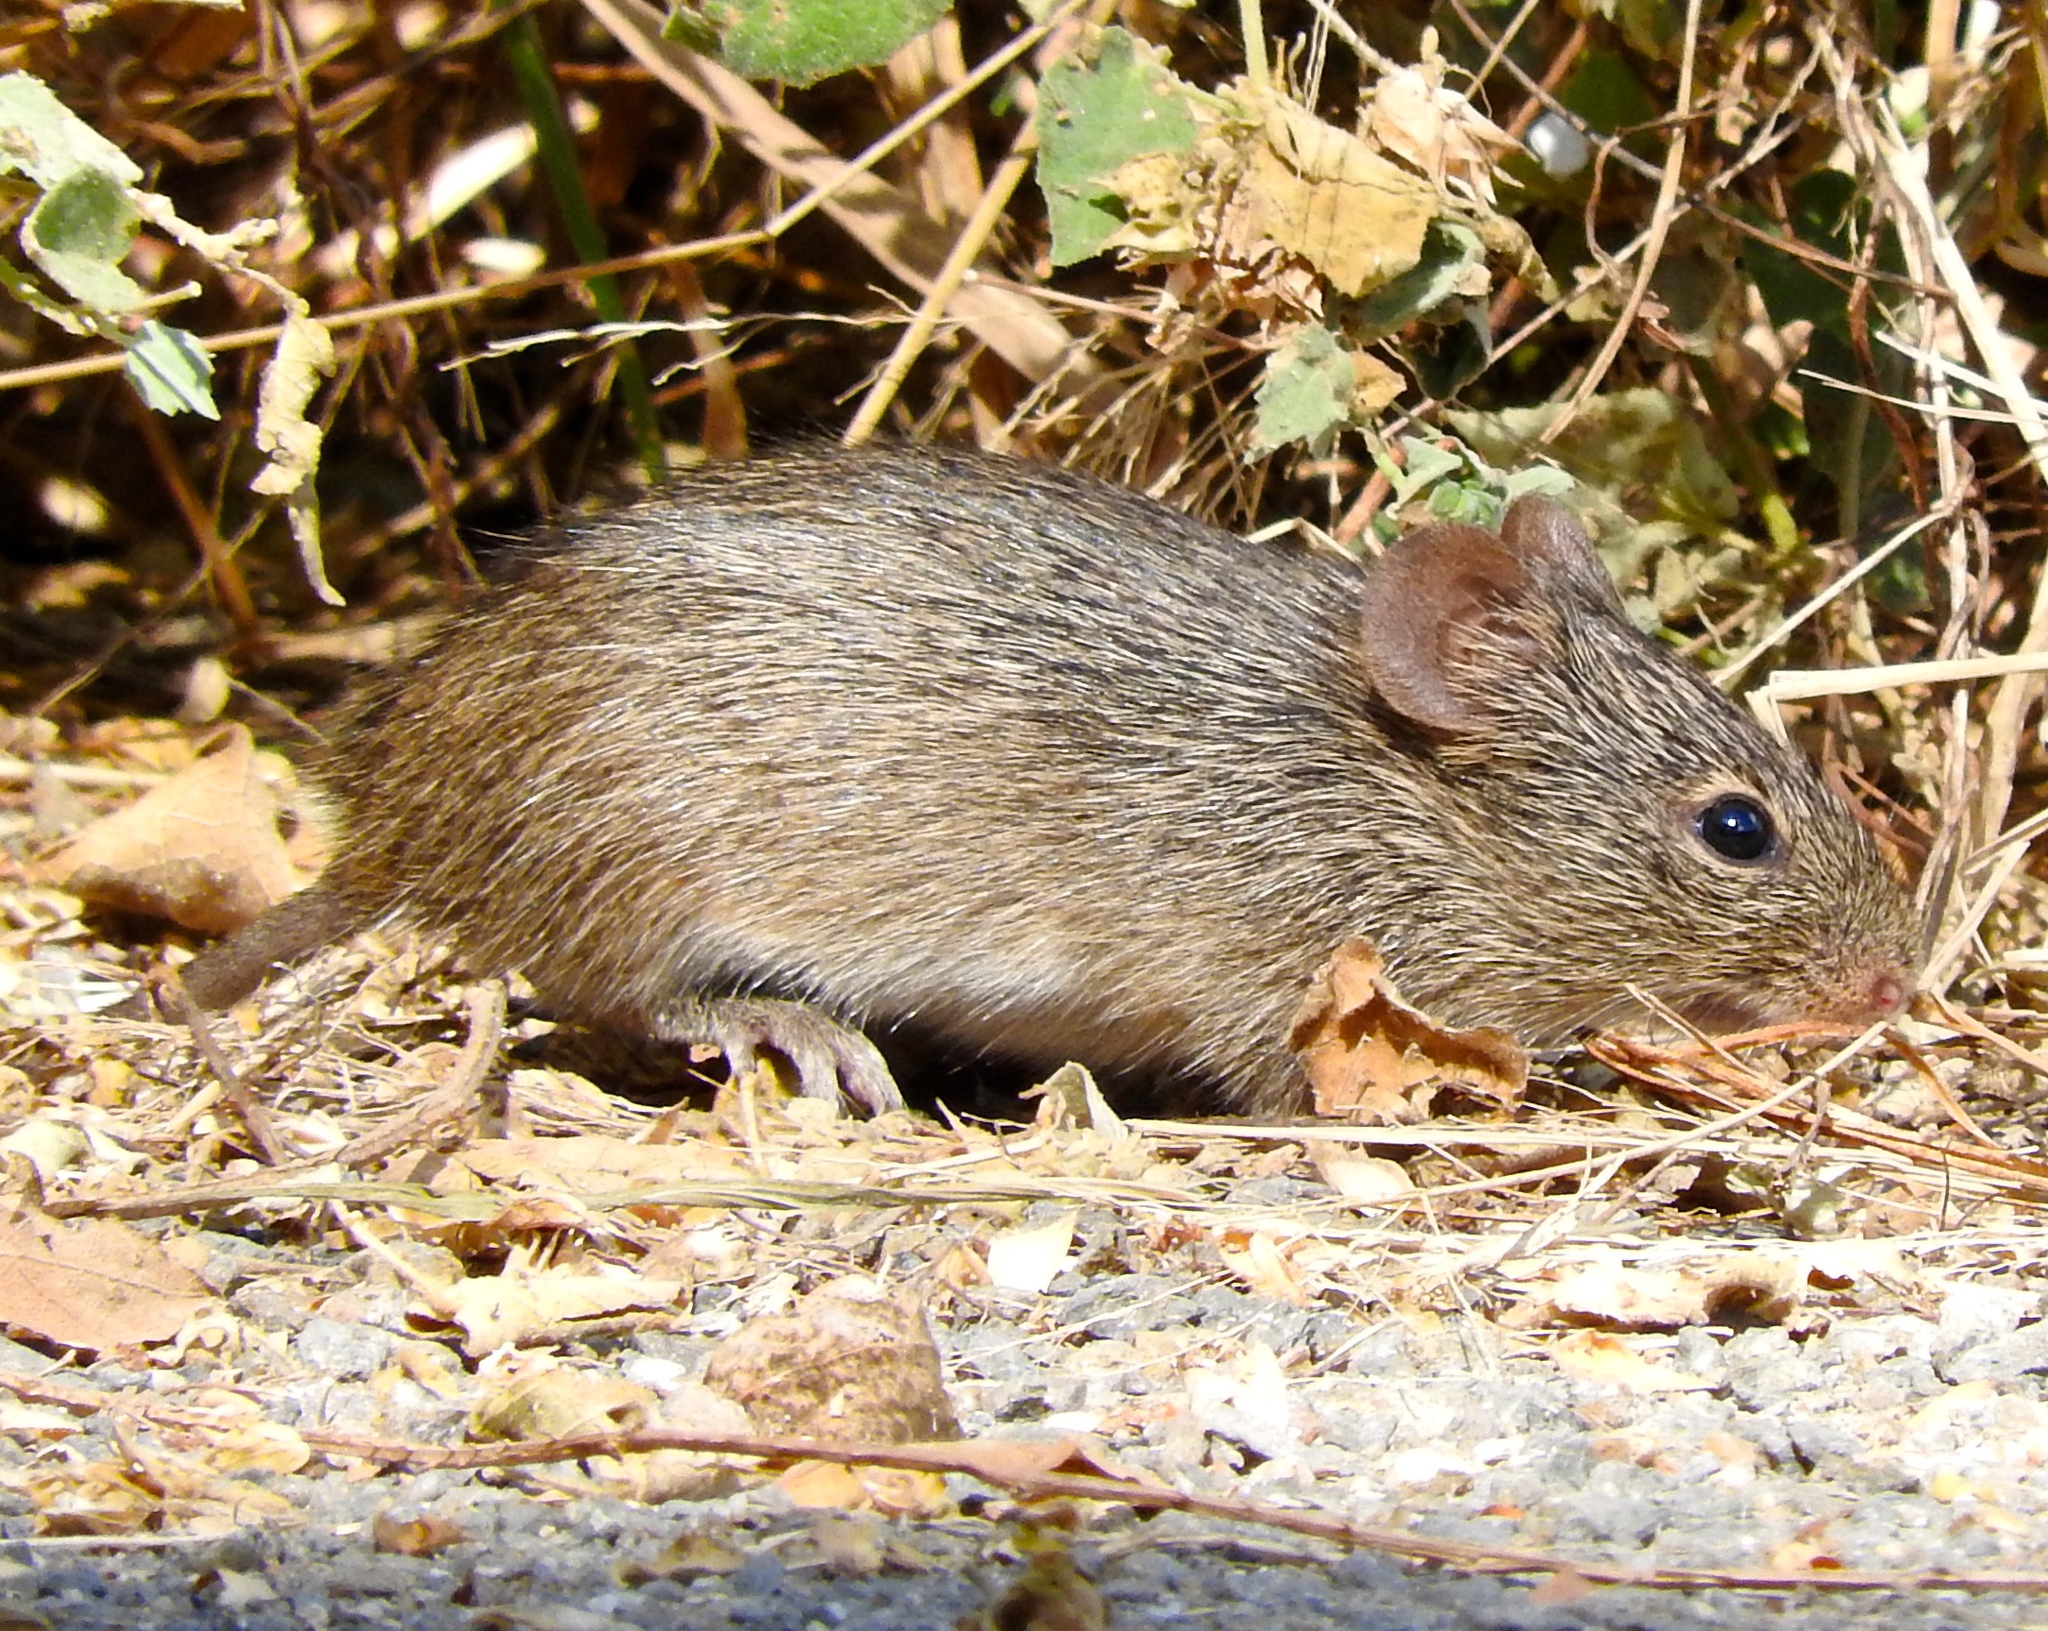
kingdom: Animalia
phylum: Chordata
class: Mammalia
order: Rodentia
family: Cricetidae
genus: Sigmodon
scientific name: Sigmodon arizonae
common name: Arizona cotton rat
